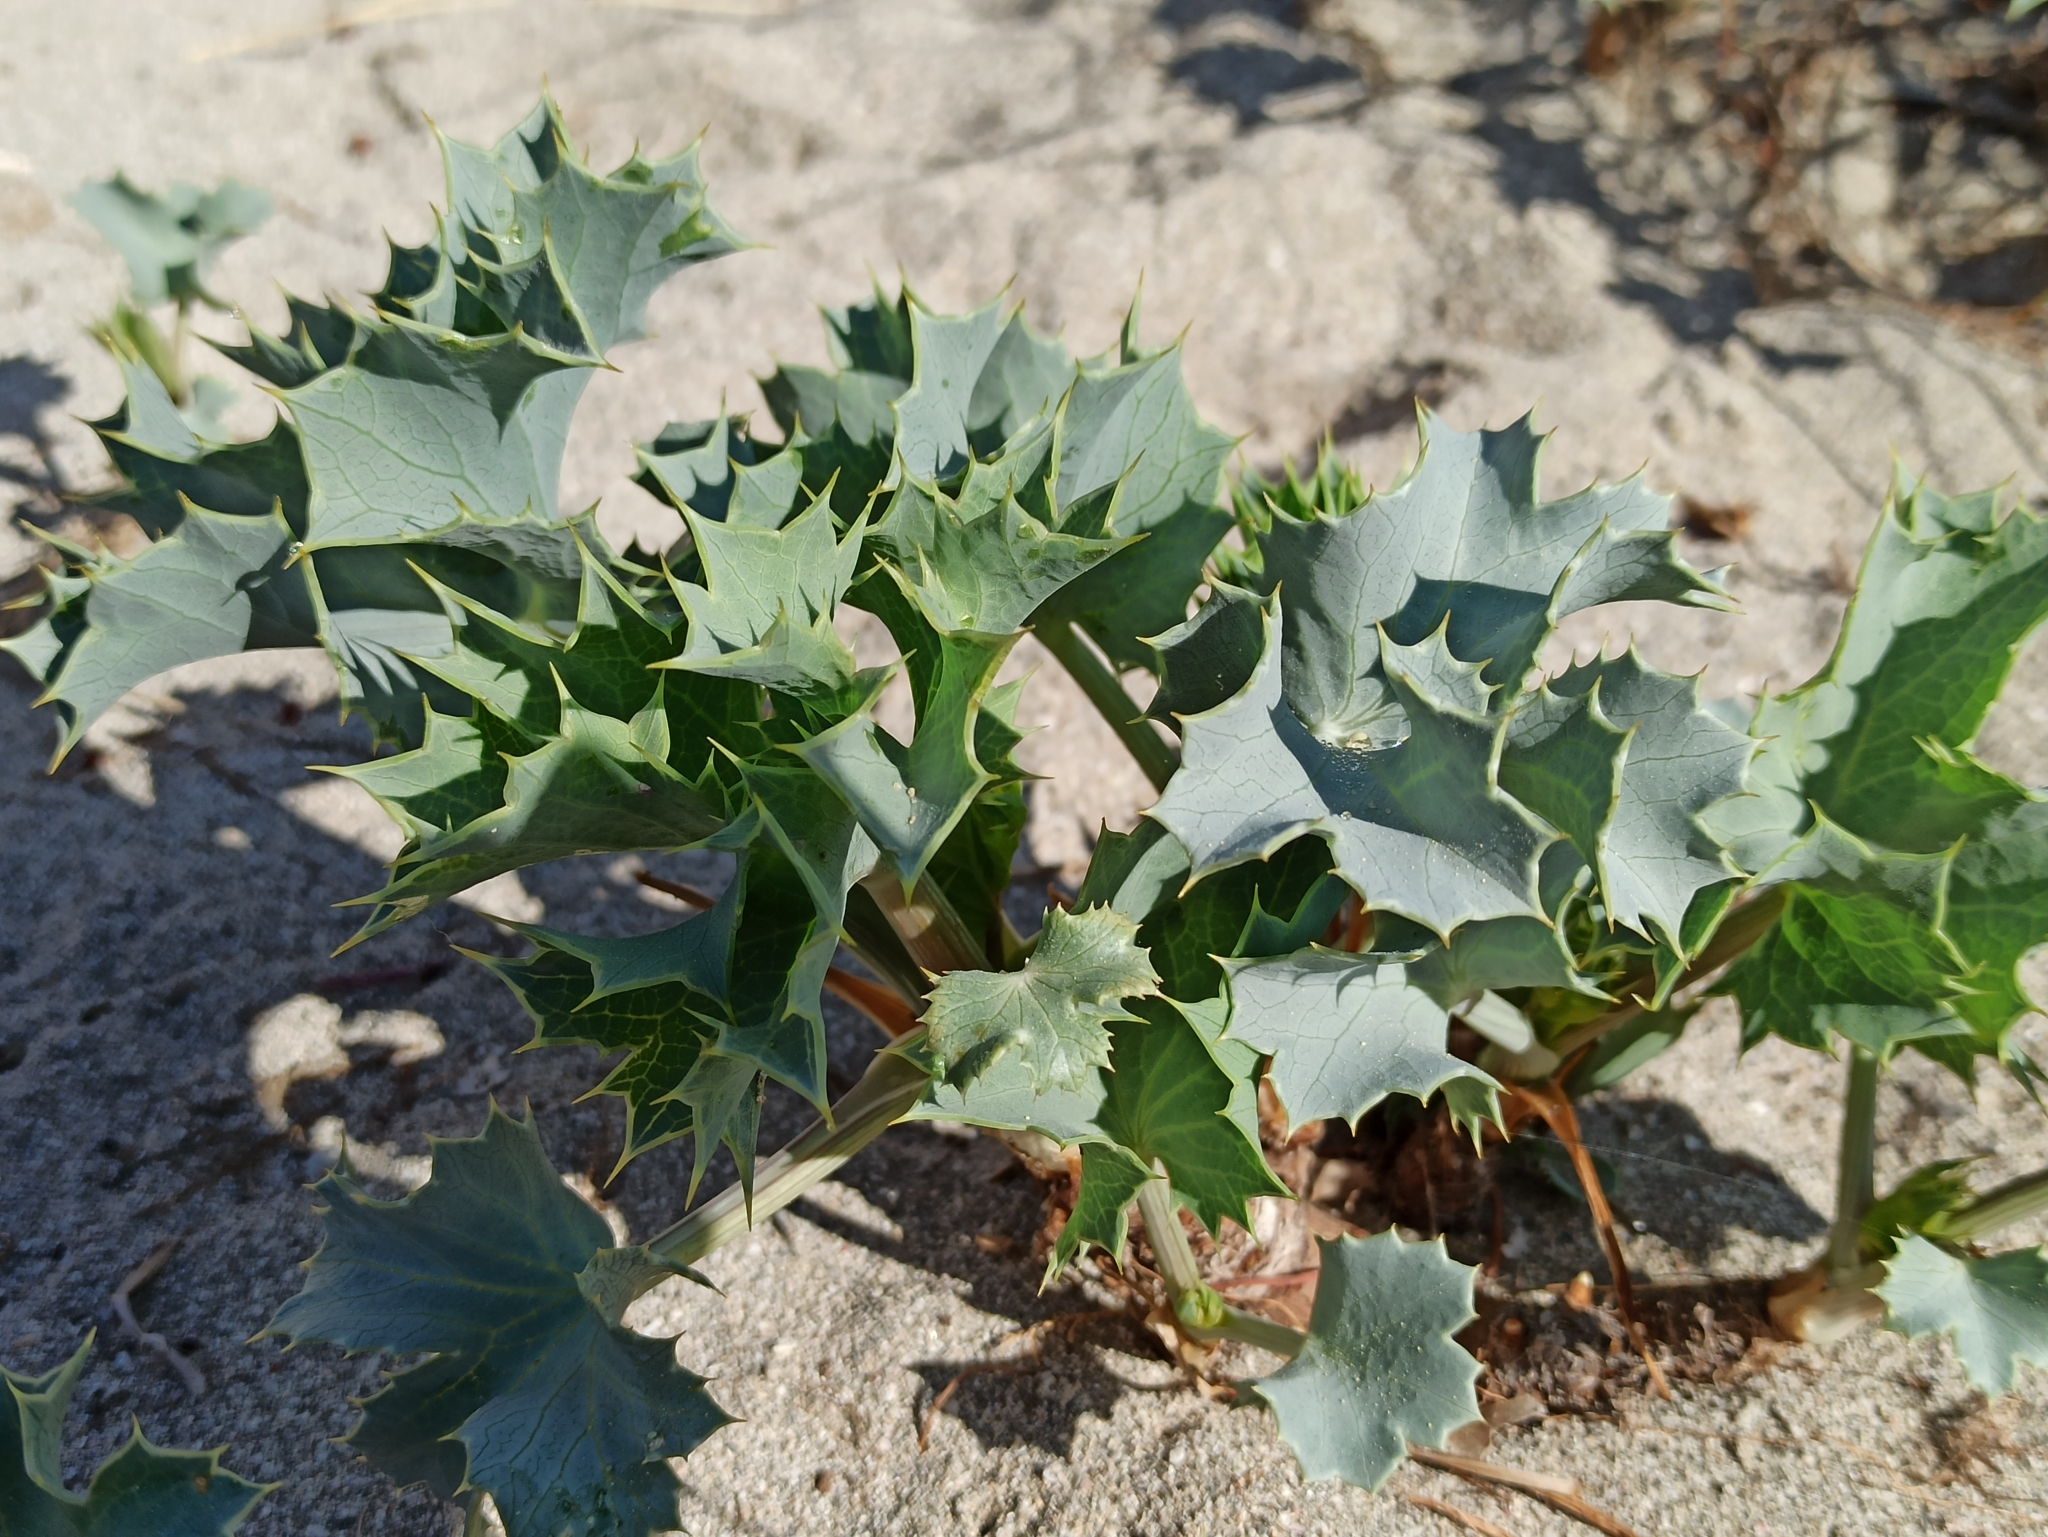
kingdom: Plantae
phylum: Tracheophyta
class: Magnoliopsida
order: Apiales
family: Apiaceae
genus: Eryngium
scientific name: Eryngium maritimum
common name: Sea-holly
